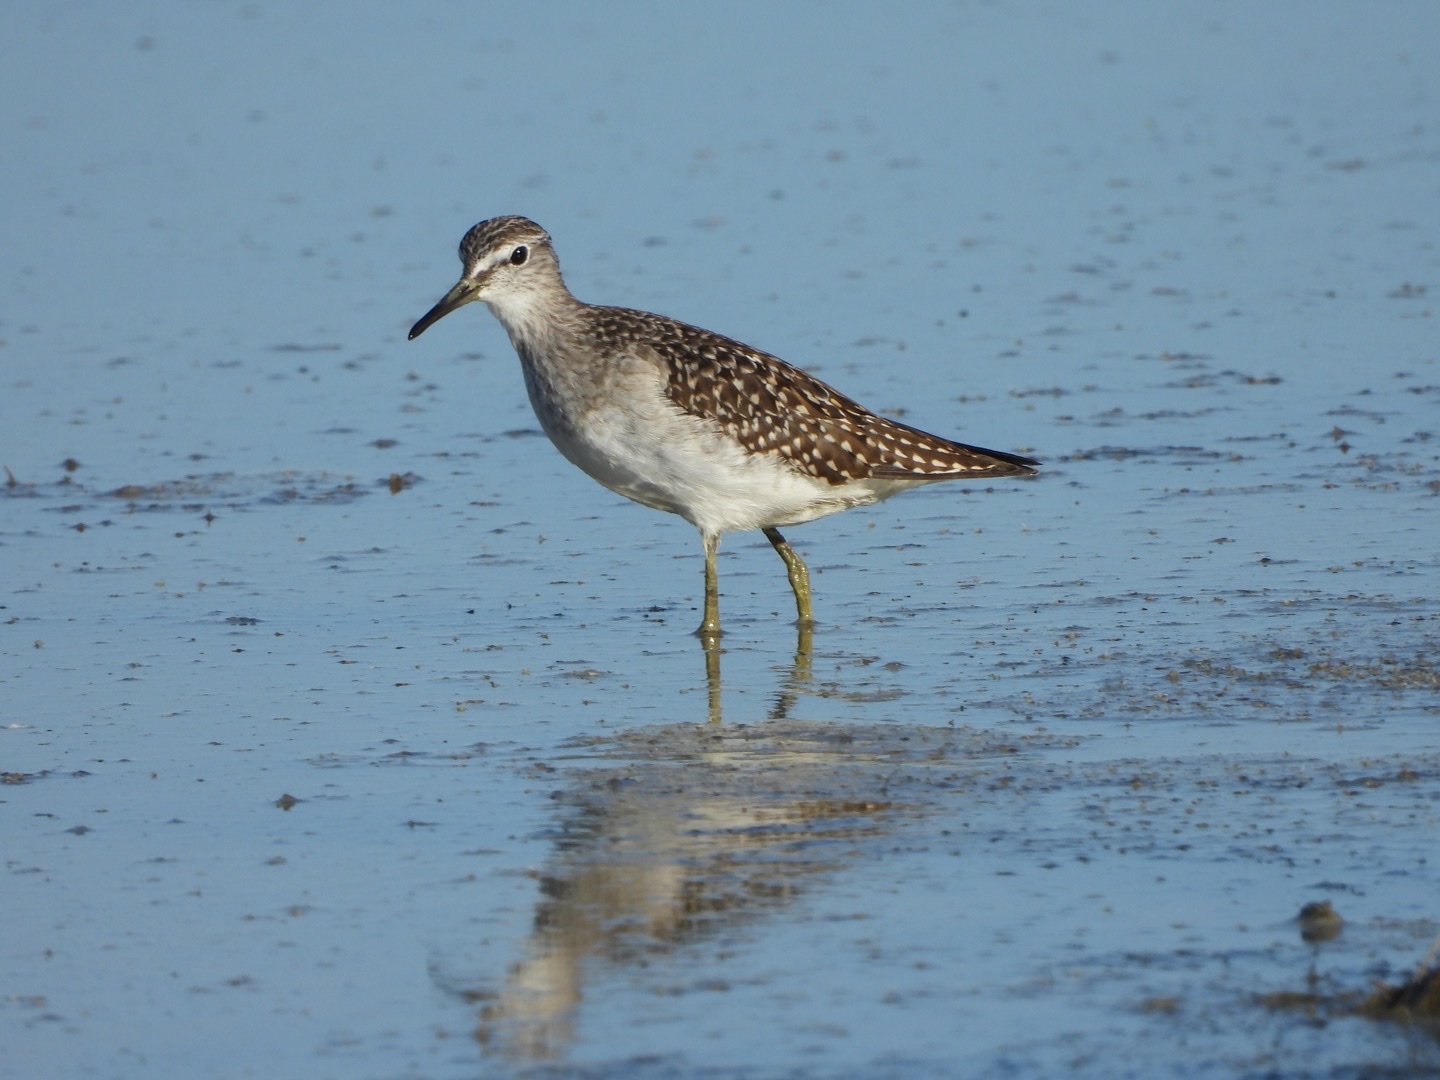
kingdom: Animalia
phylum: Chordata
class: Aves
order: Charadriiformes
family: Scolopacidae
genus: Tringa
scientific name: Tringa glareola
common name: Wood sandpiper
